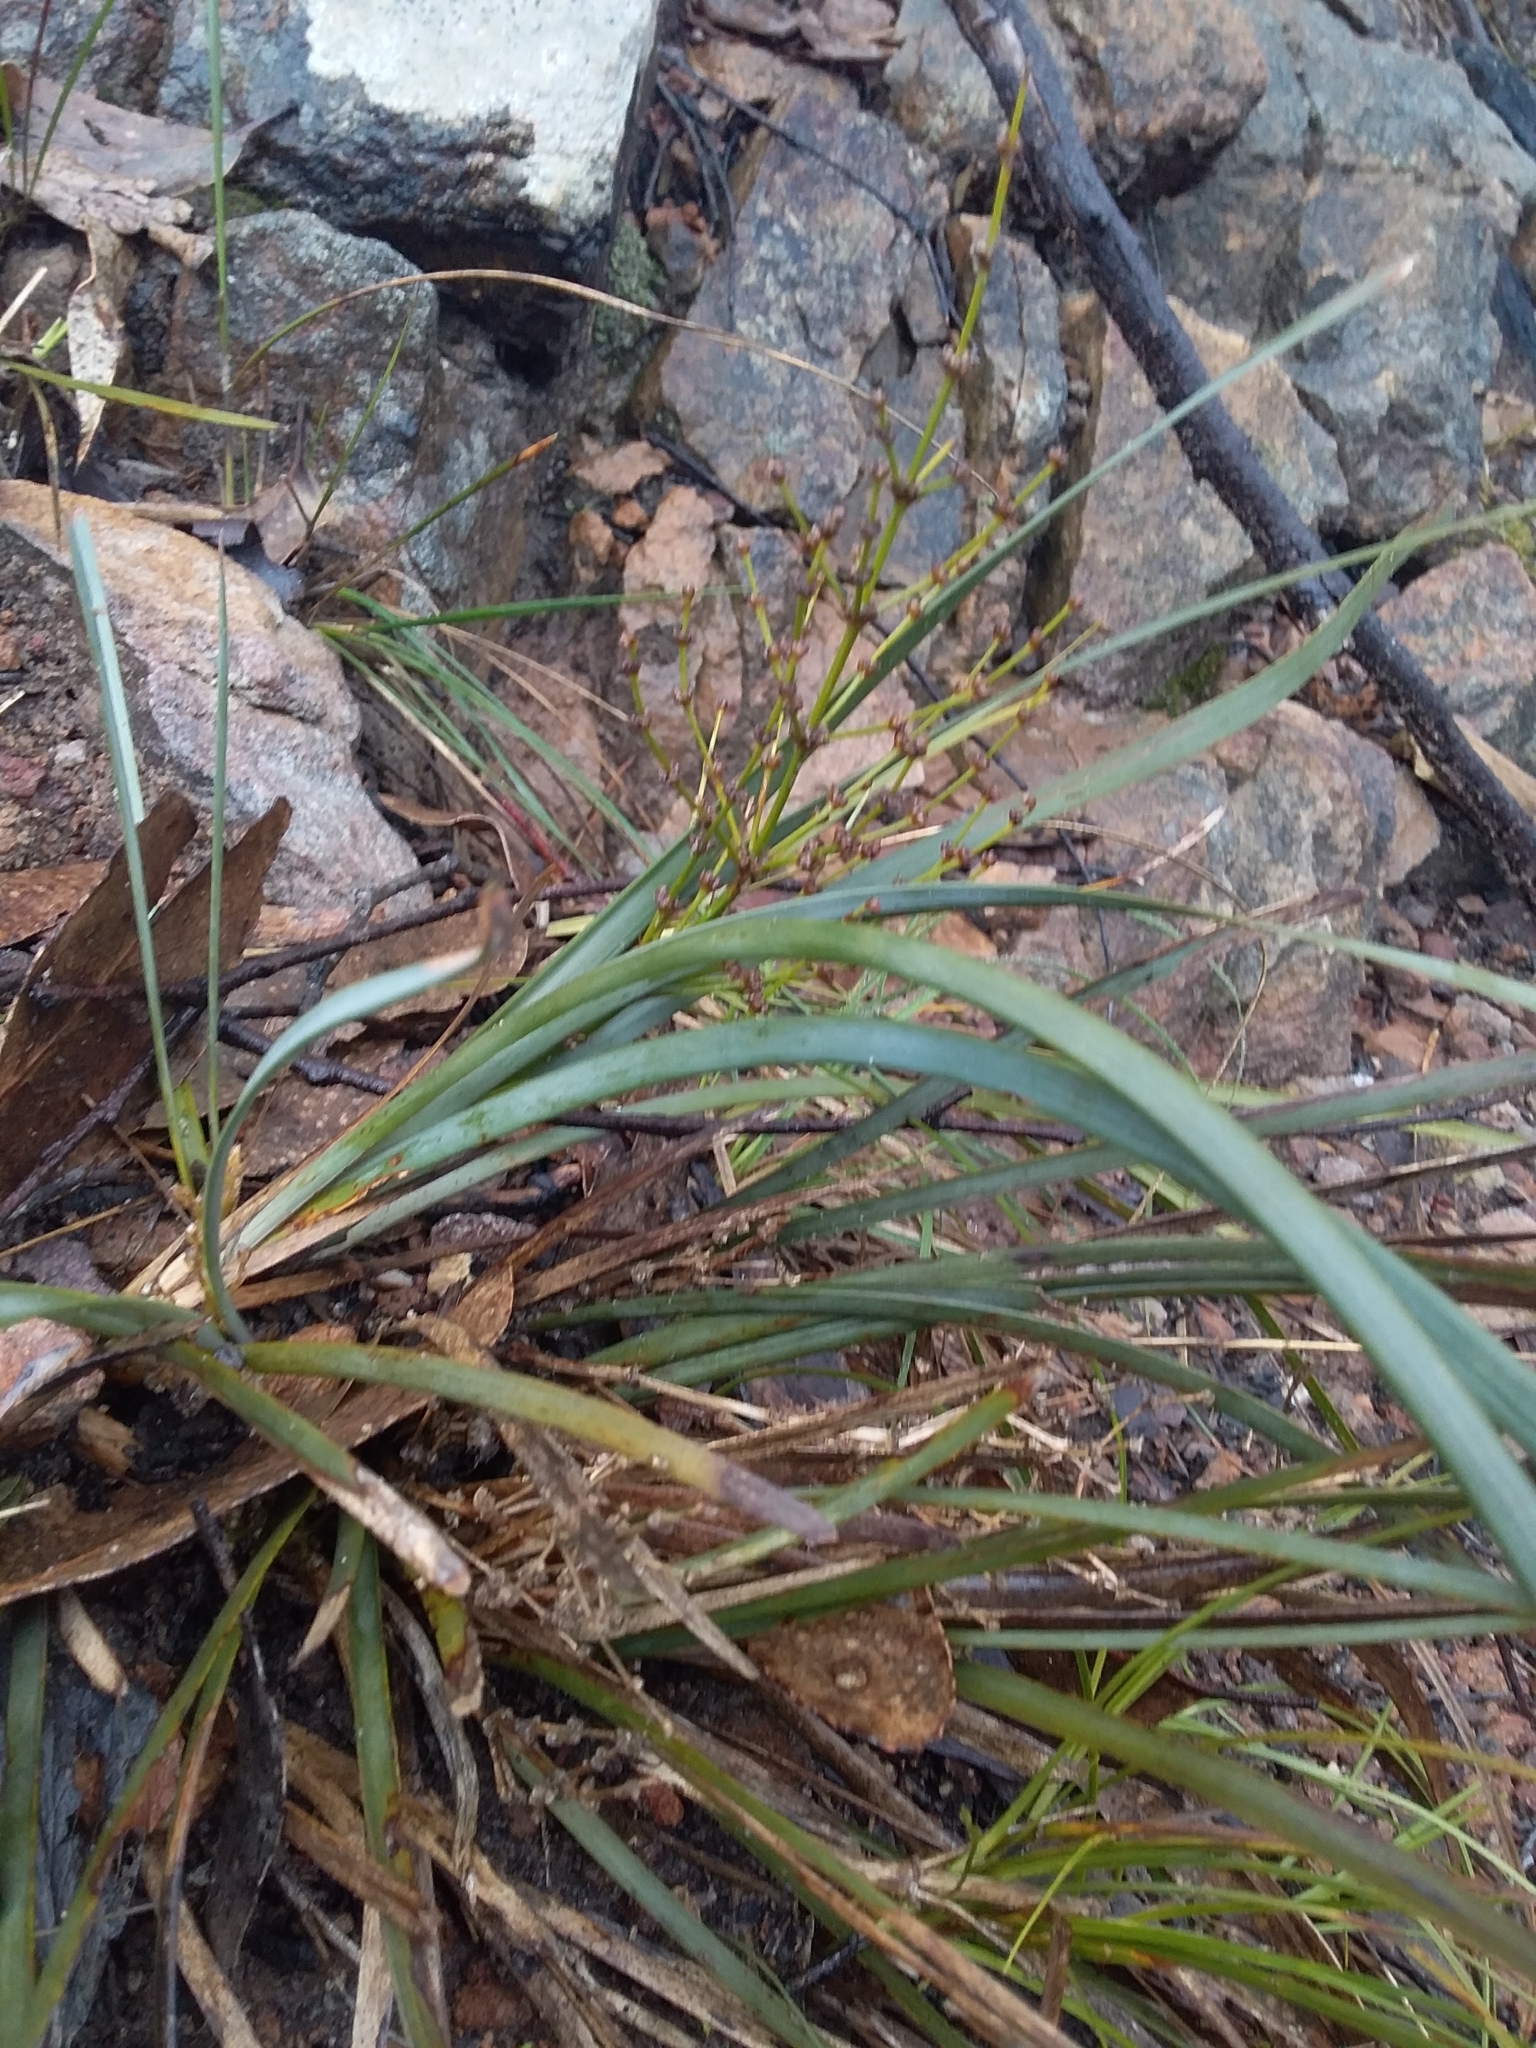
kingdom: Plantae
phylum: Tracheophyta
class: Liliopsida
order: Asparagales
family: Asparagaceae
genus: Lomandra
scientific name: Lomandra multiflora
